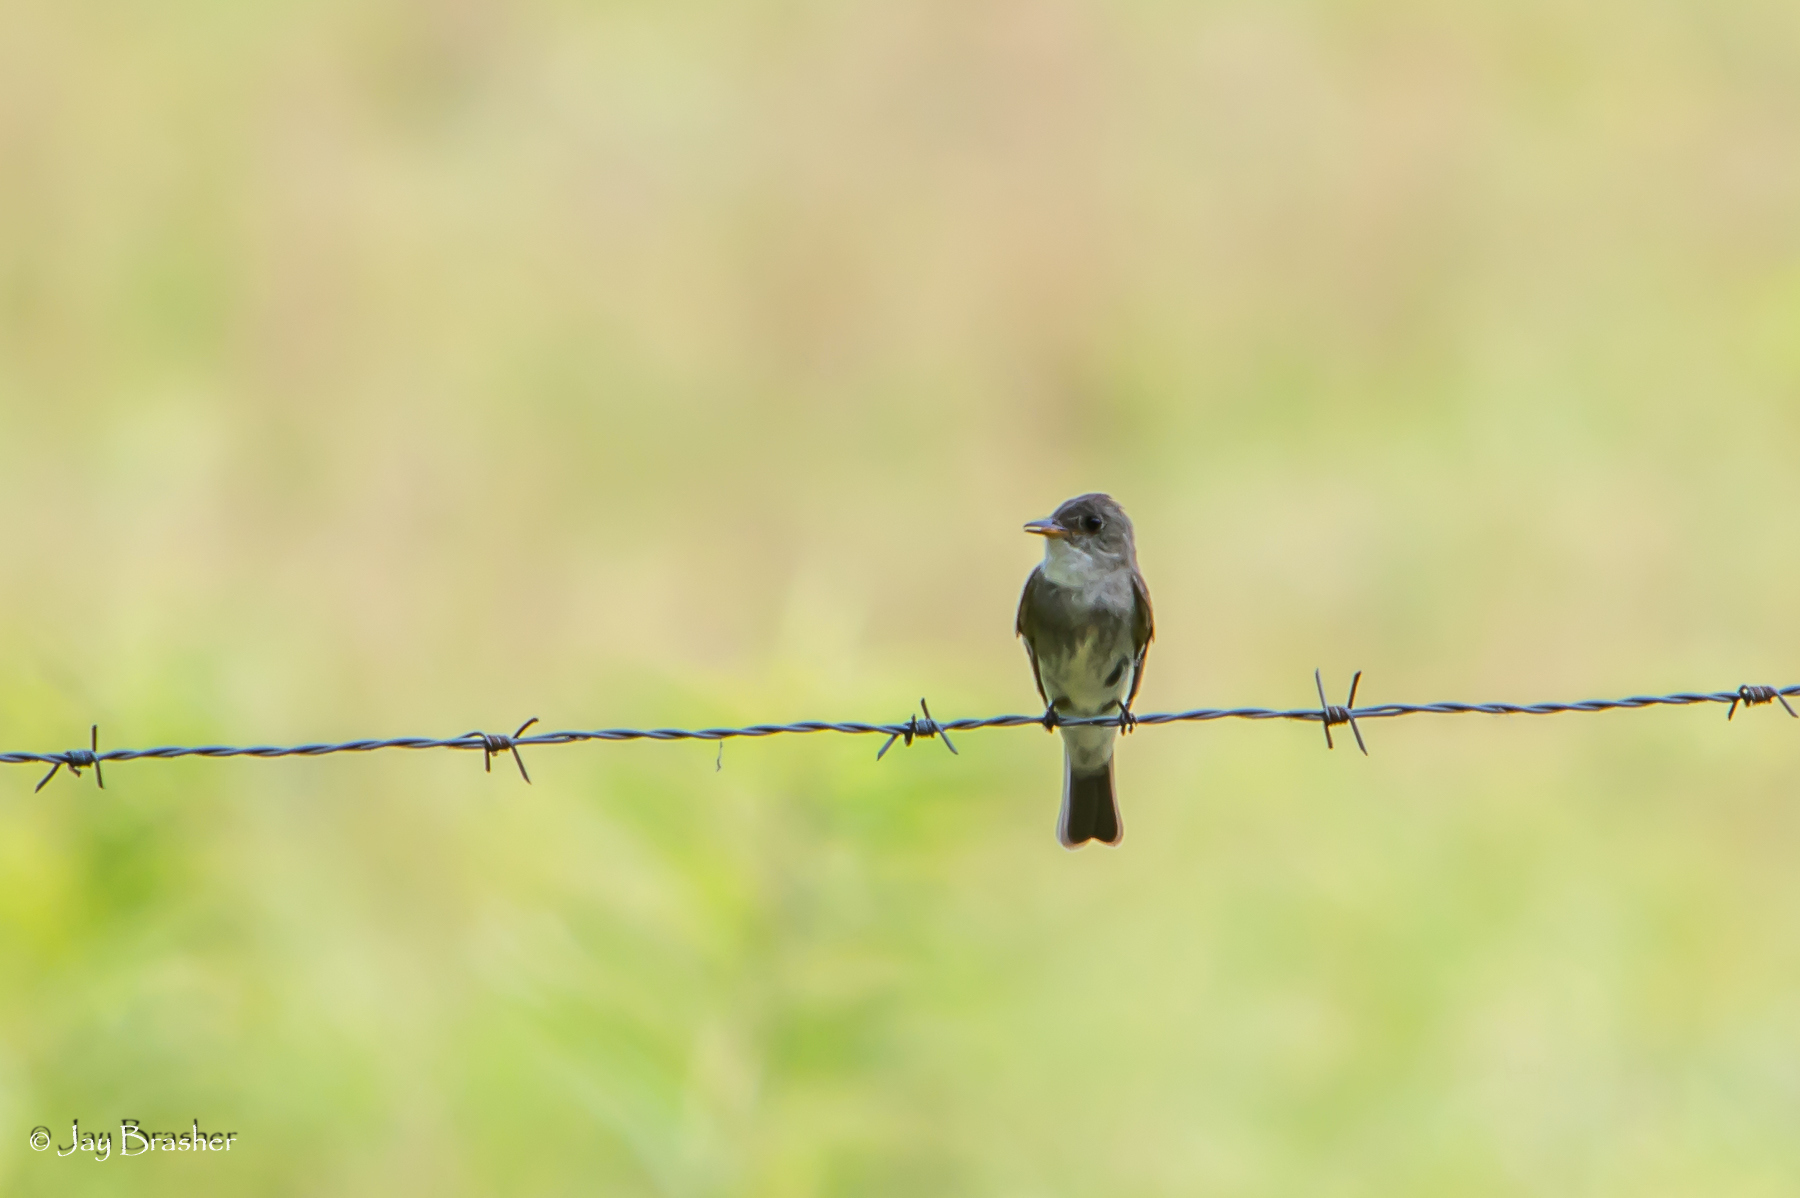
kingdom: Animalia
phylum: Chordata
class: Aves
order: Passeriformes
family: Tyrannidae
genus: Contopus
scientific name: Contopus virens
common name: Eastern wood-pewee
